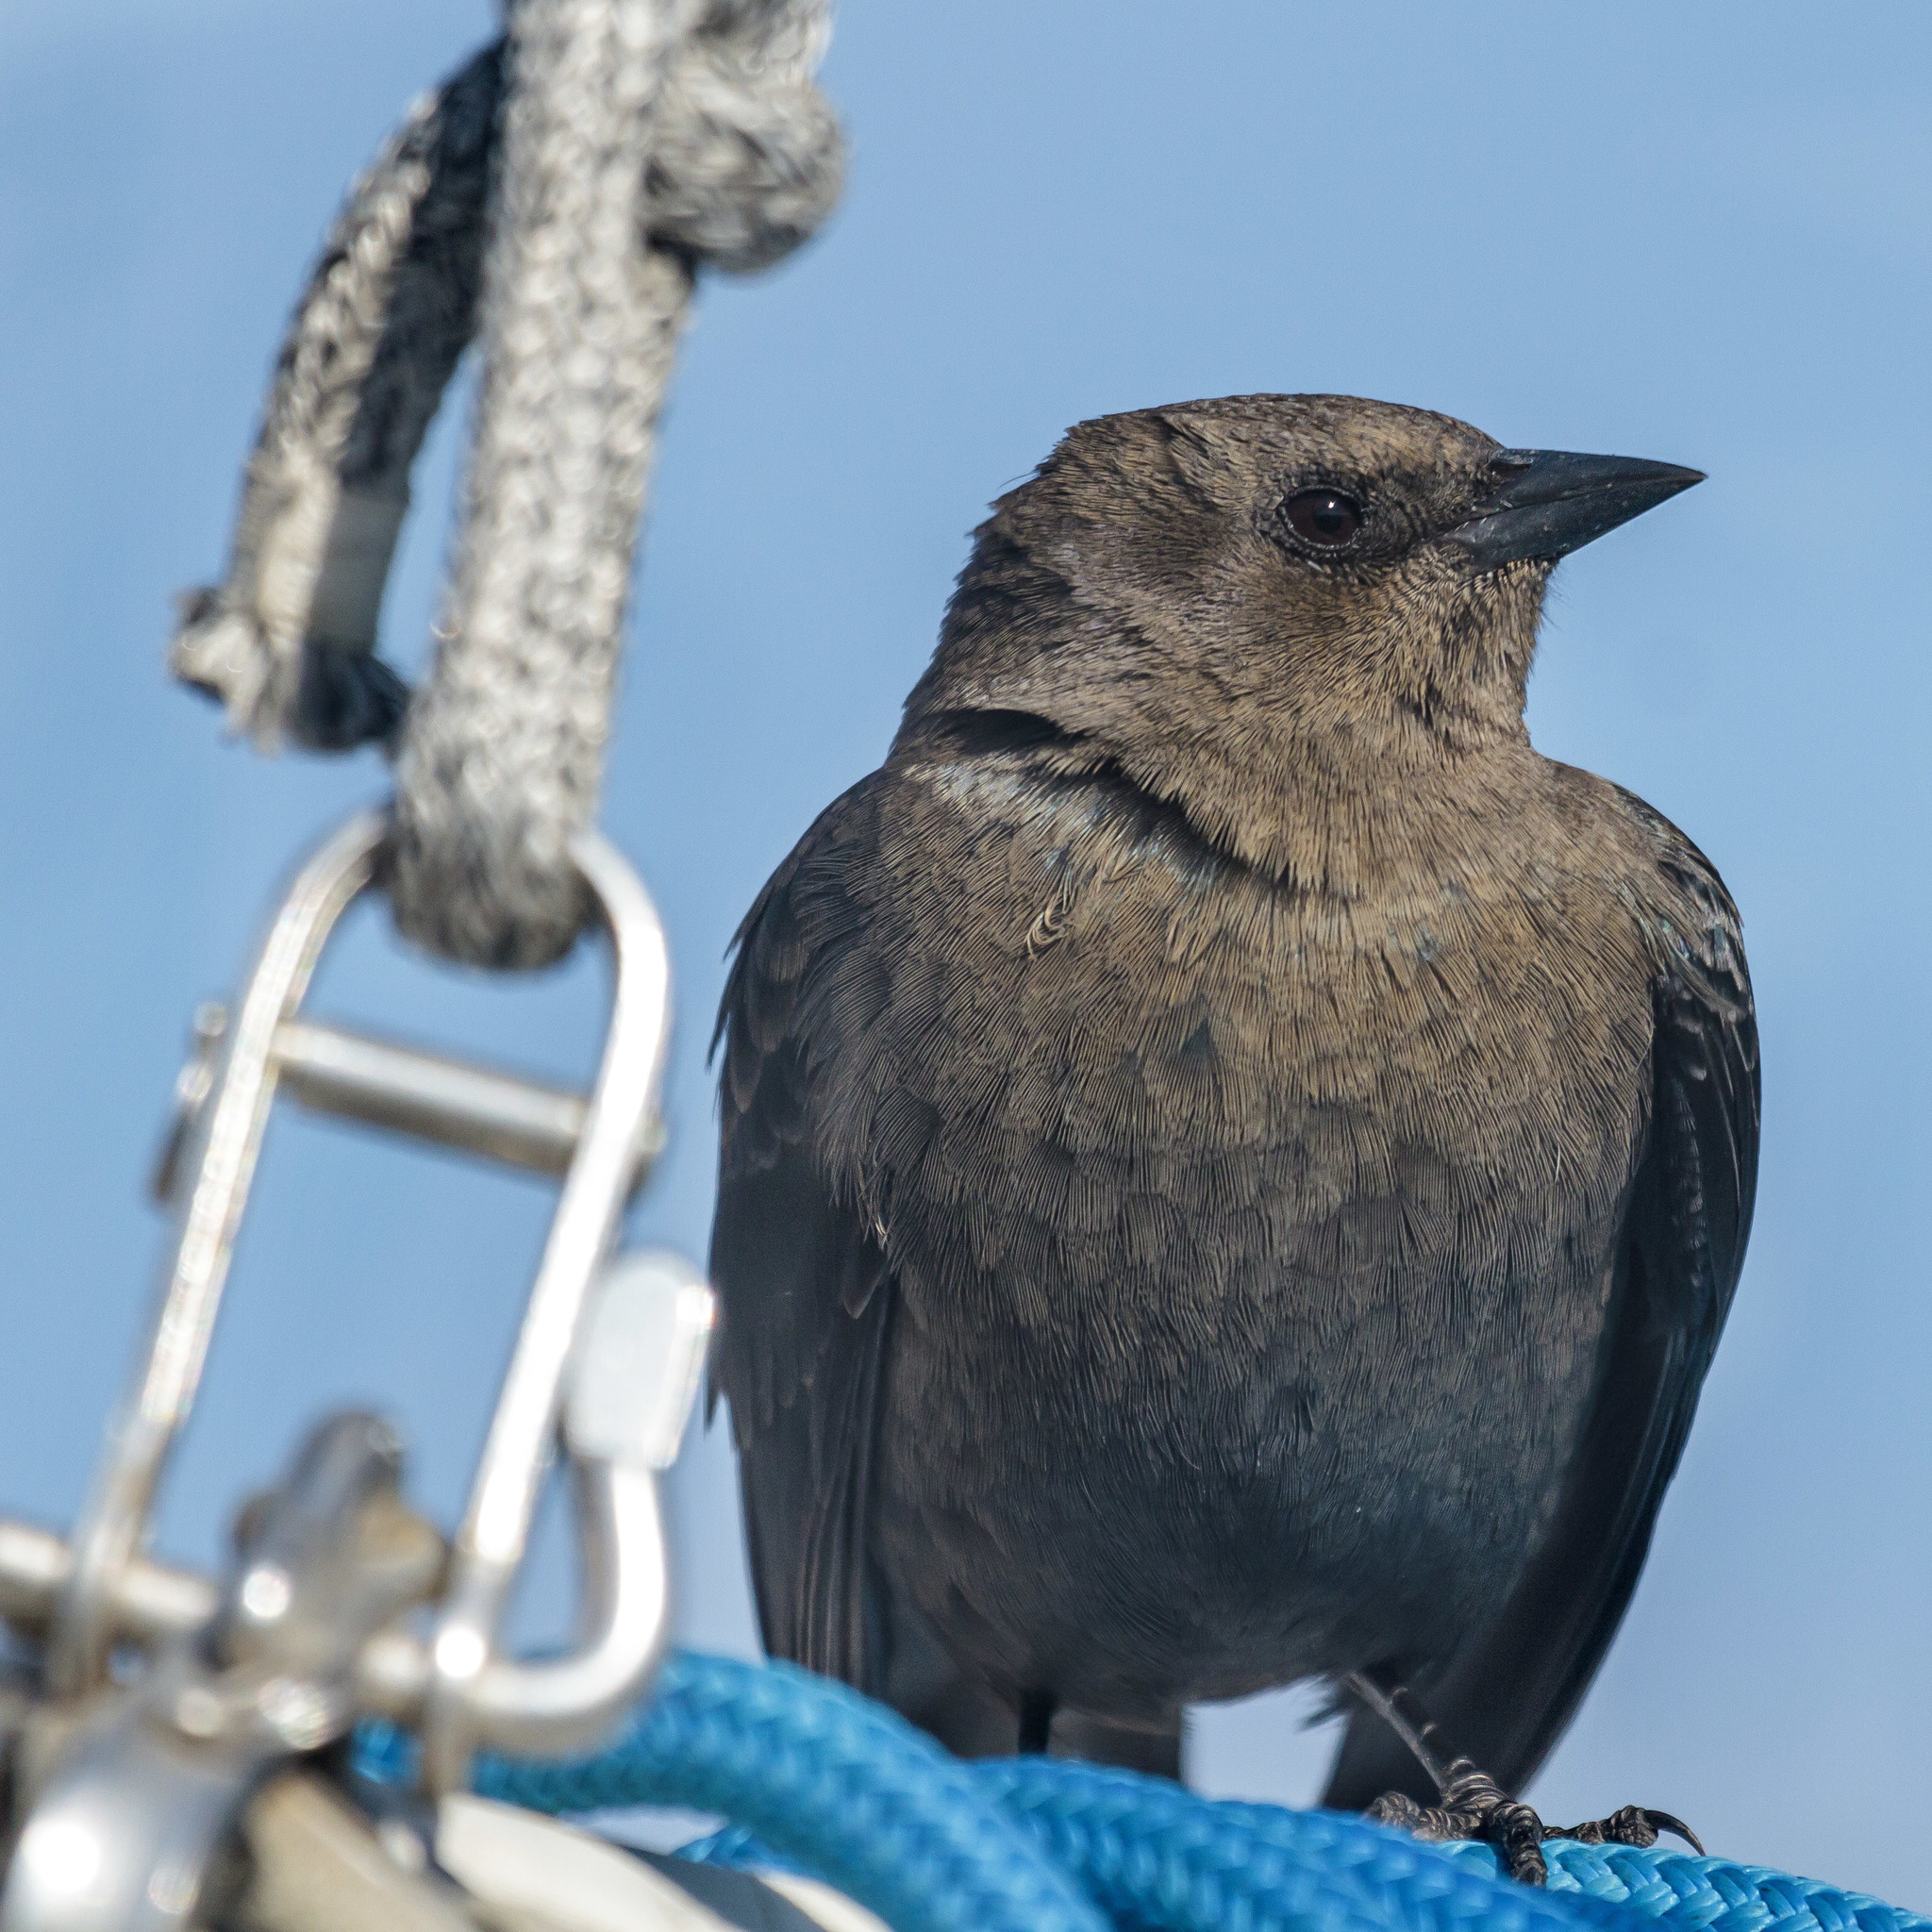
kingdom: Animalia
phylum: Chordata
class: Aves
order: Passeriformes
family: Icteridae
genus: Euphagus
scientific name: Euphagus cyanocephalus
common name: Brewer's blackbird
